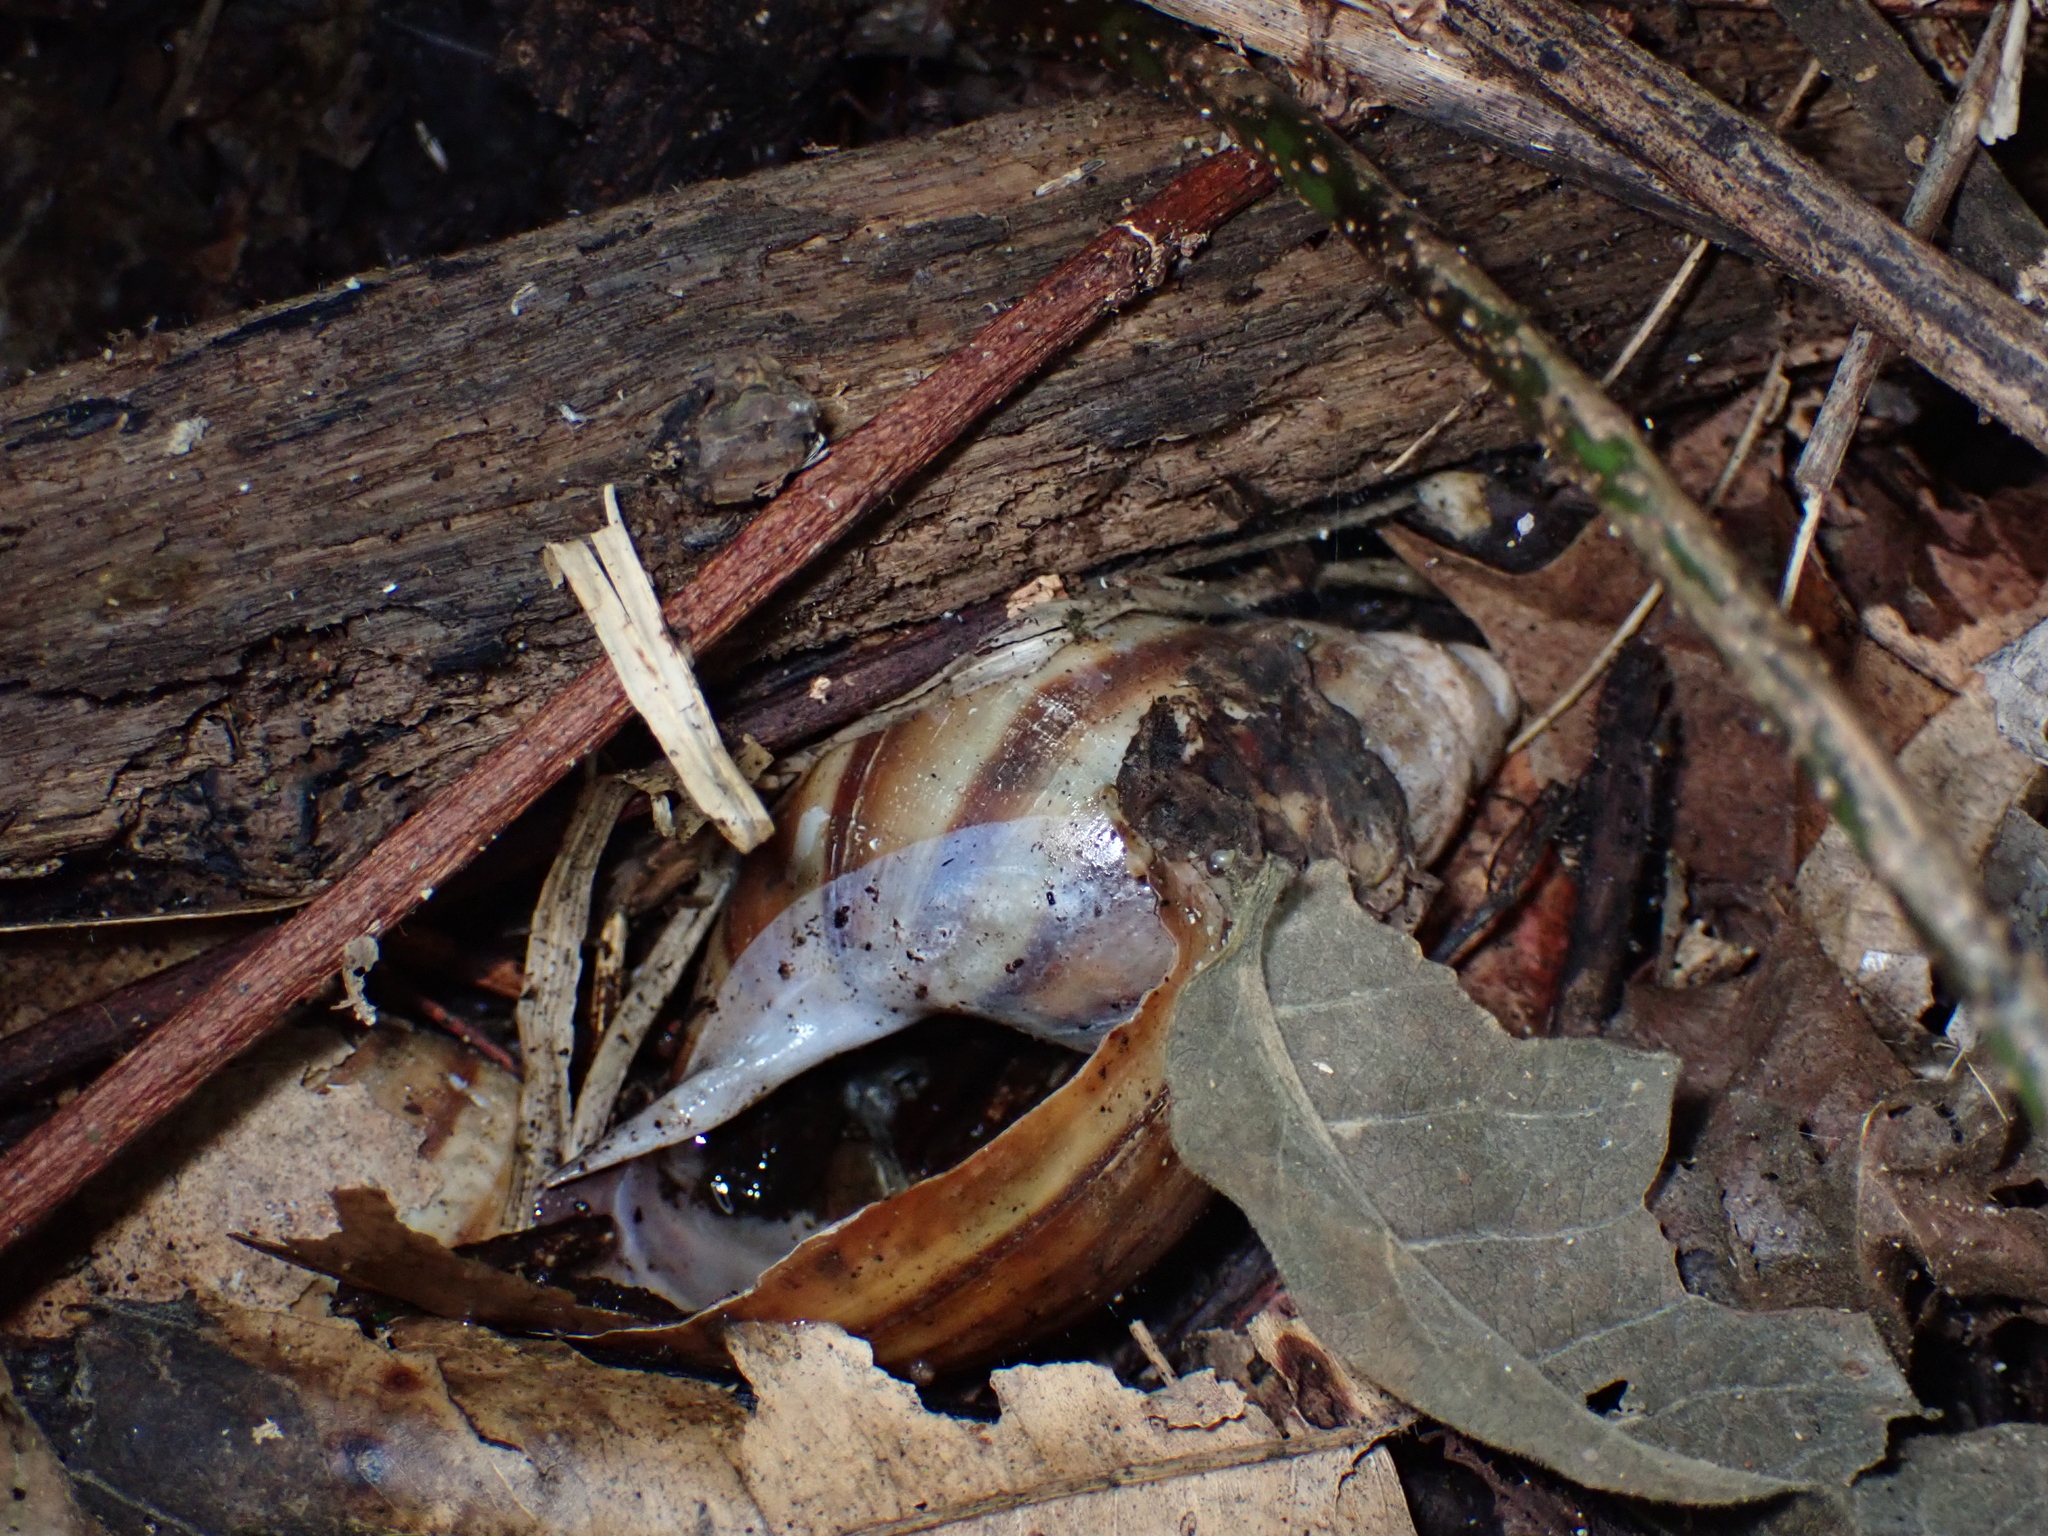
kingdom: Animalia
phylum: Mollusca
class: Gastropoda
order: Stylommatophora
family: Achatinidae
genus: Lissachatina
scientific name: Lissachatina fulica
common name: Giant african snail
